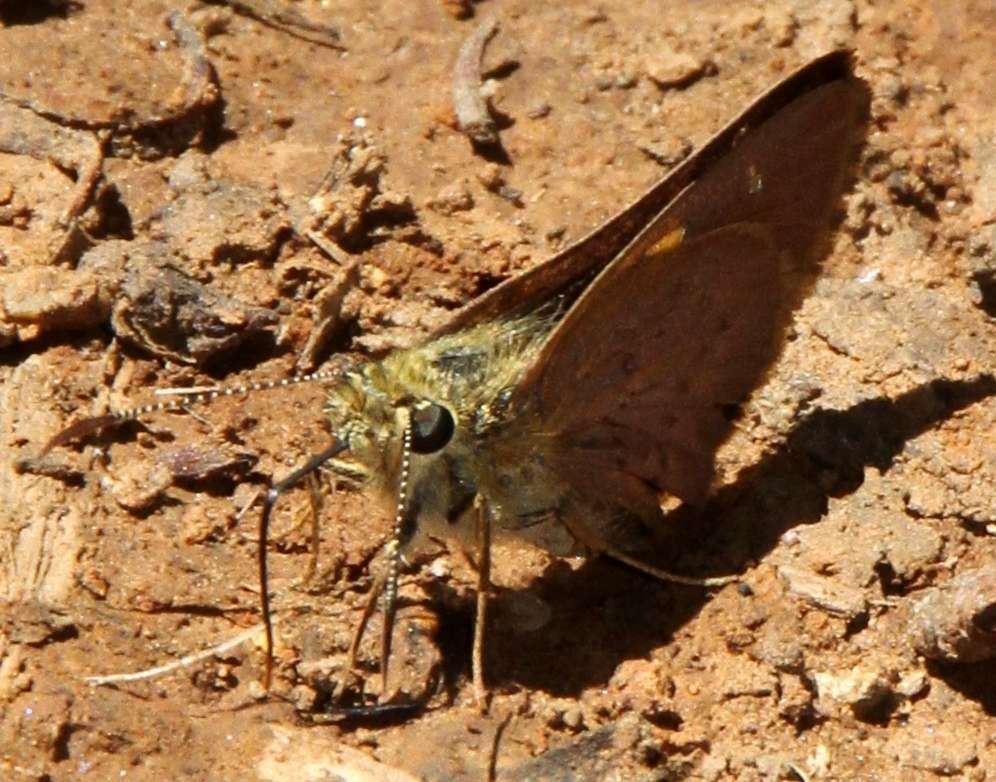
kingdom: Animalia
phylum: Arthropoda
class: Insecta
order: Lepidoptera
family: Hesperiidae
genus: Toxidia
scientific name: Toxidia
